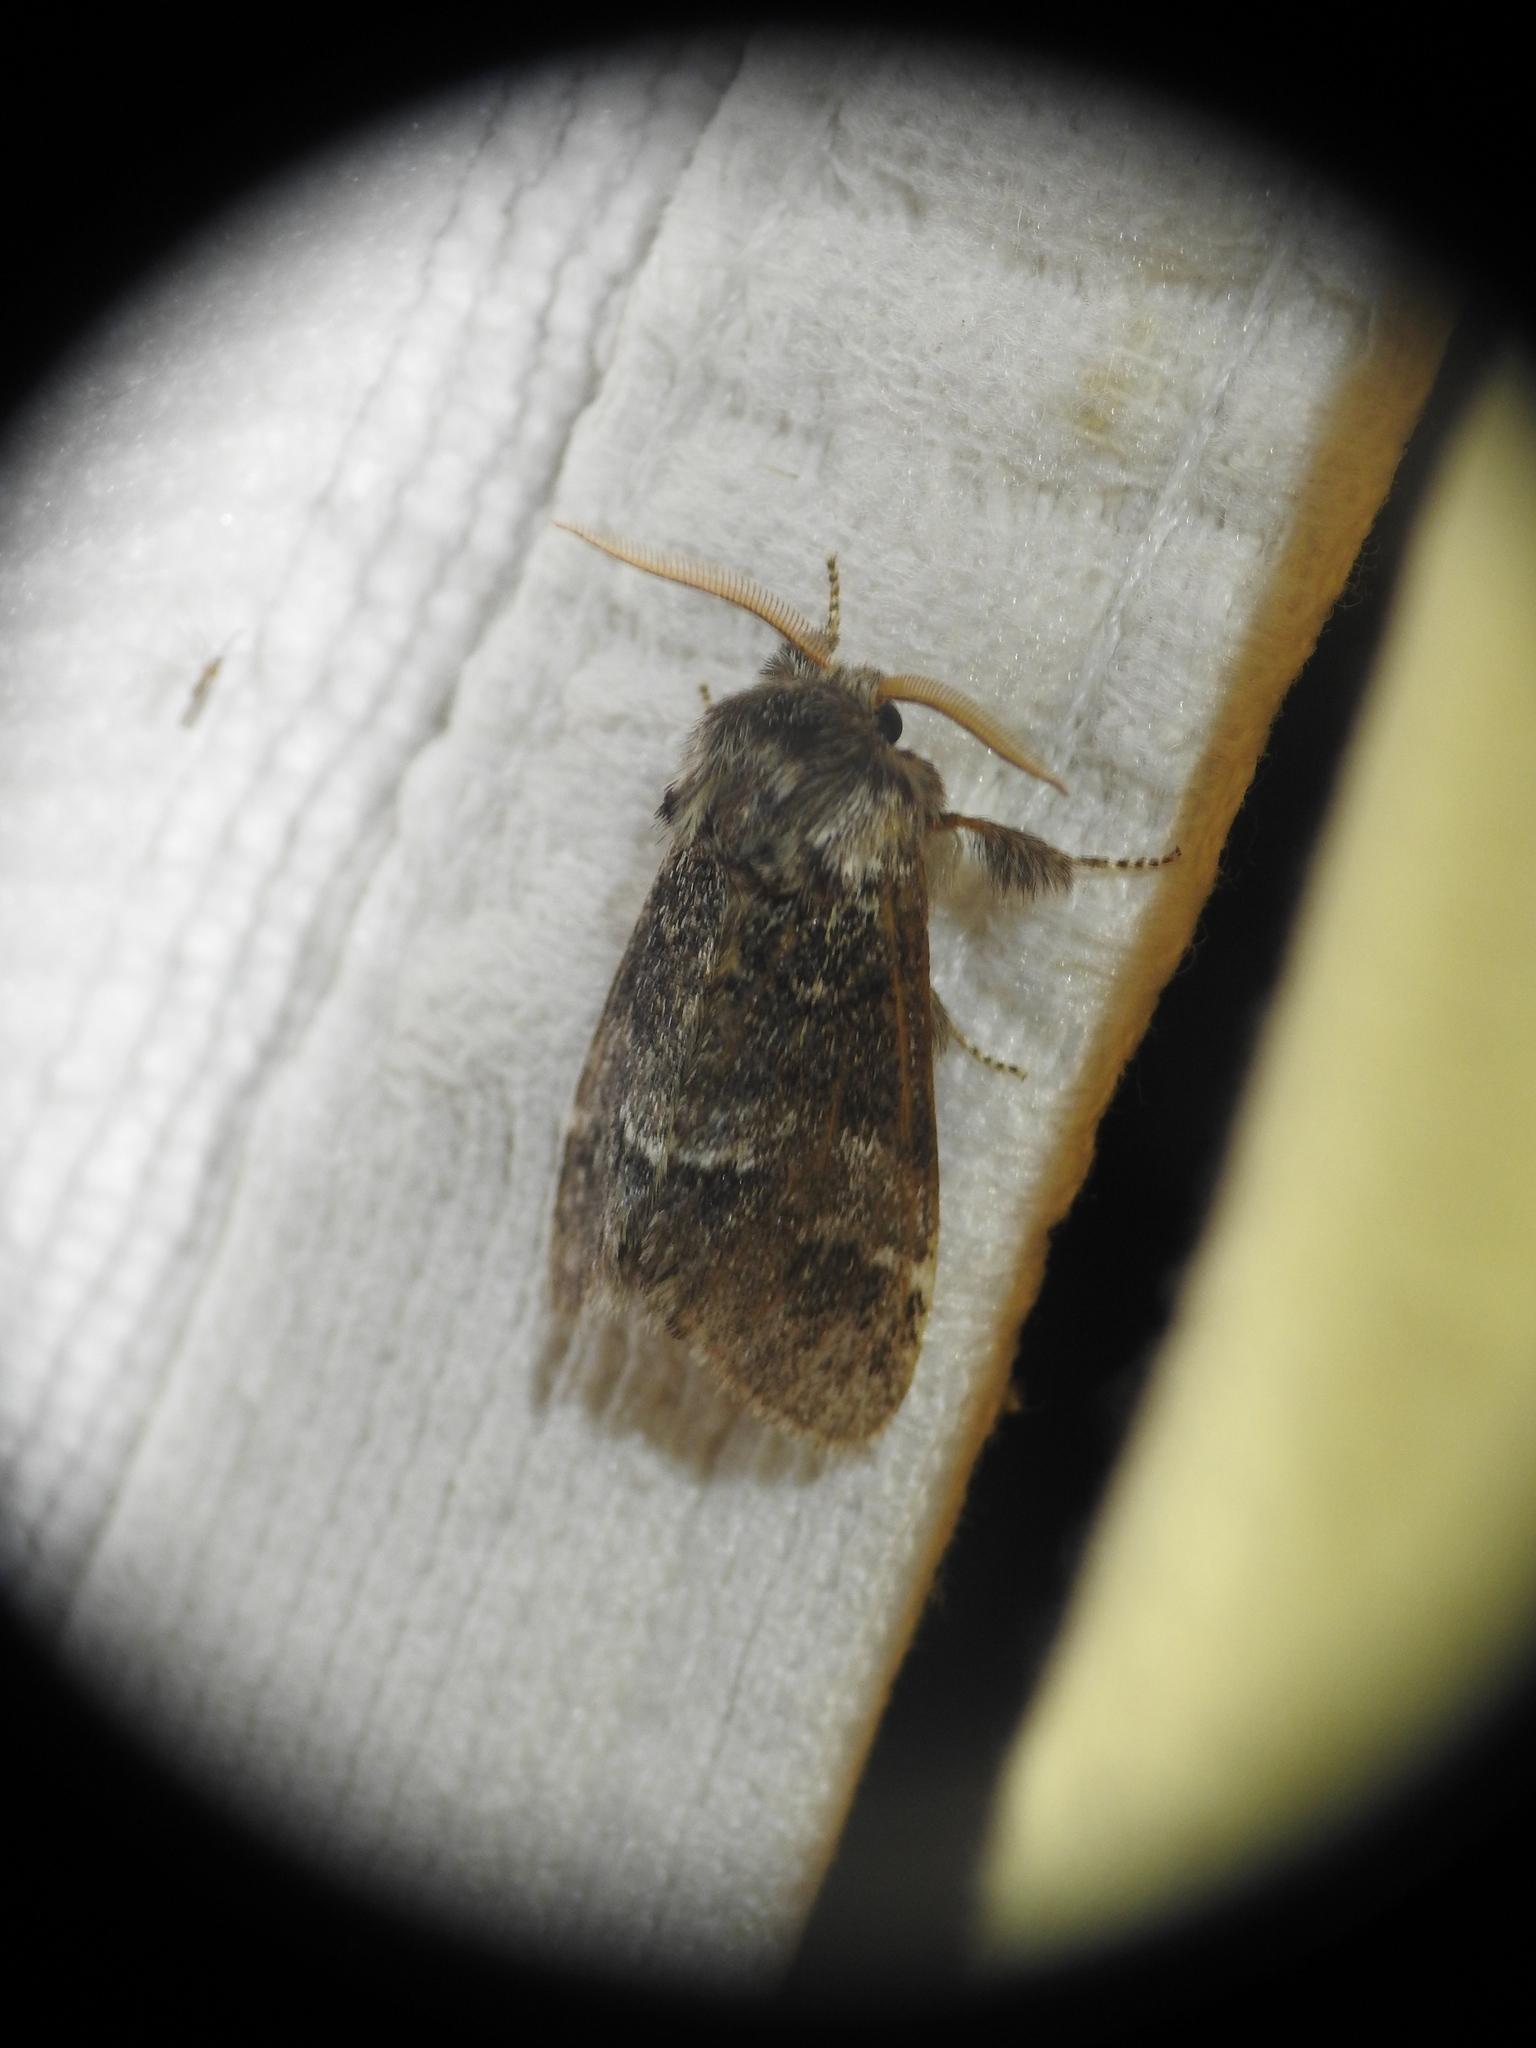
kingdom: Animalia
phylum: Arthropoda
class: Insecta
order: Lepidoptera
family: Notodontidae
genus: Drymonia
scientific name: Drymonia dodonaea
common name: Marbled brown
